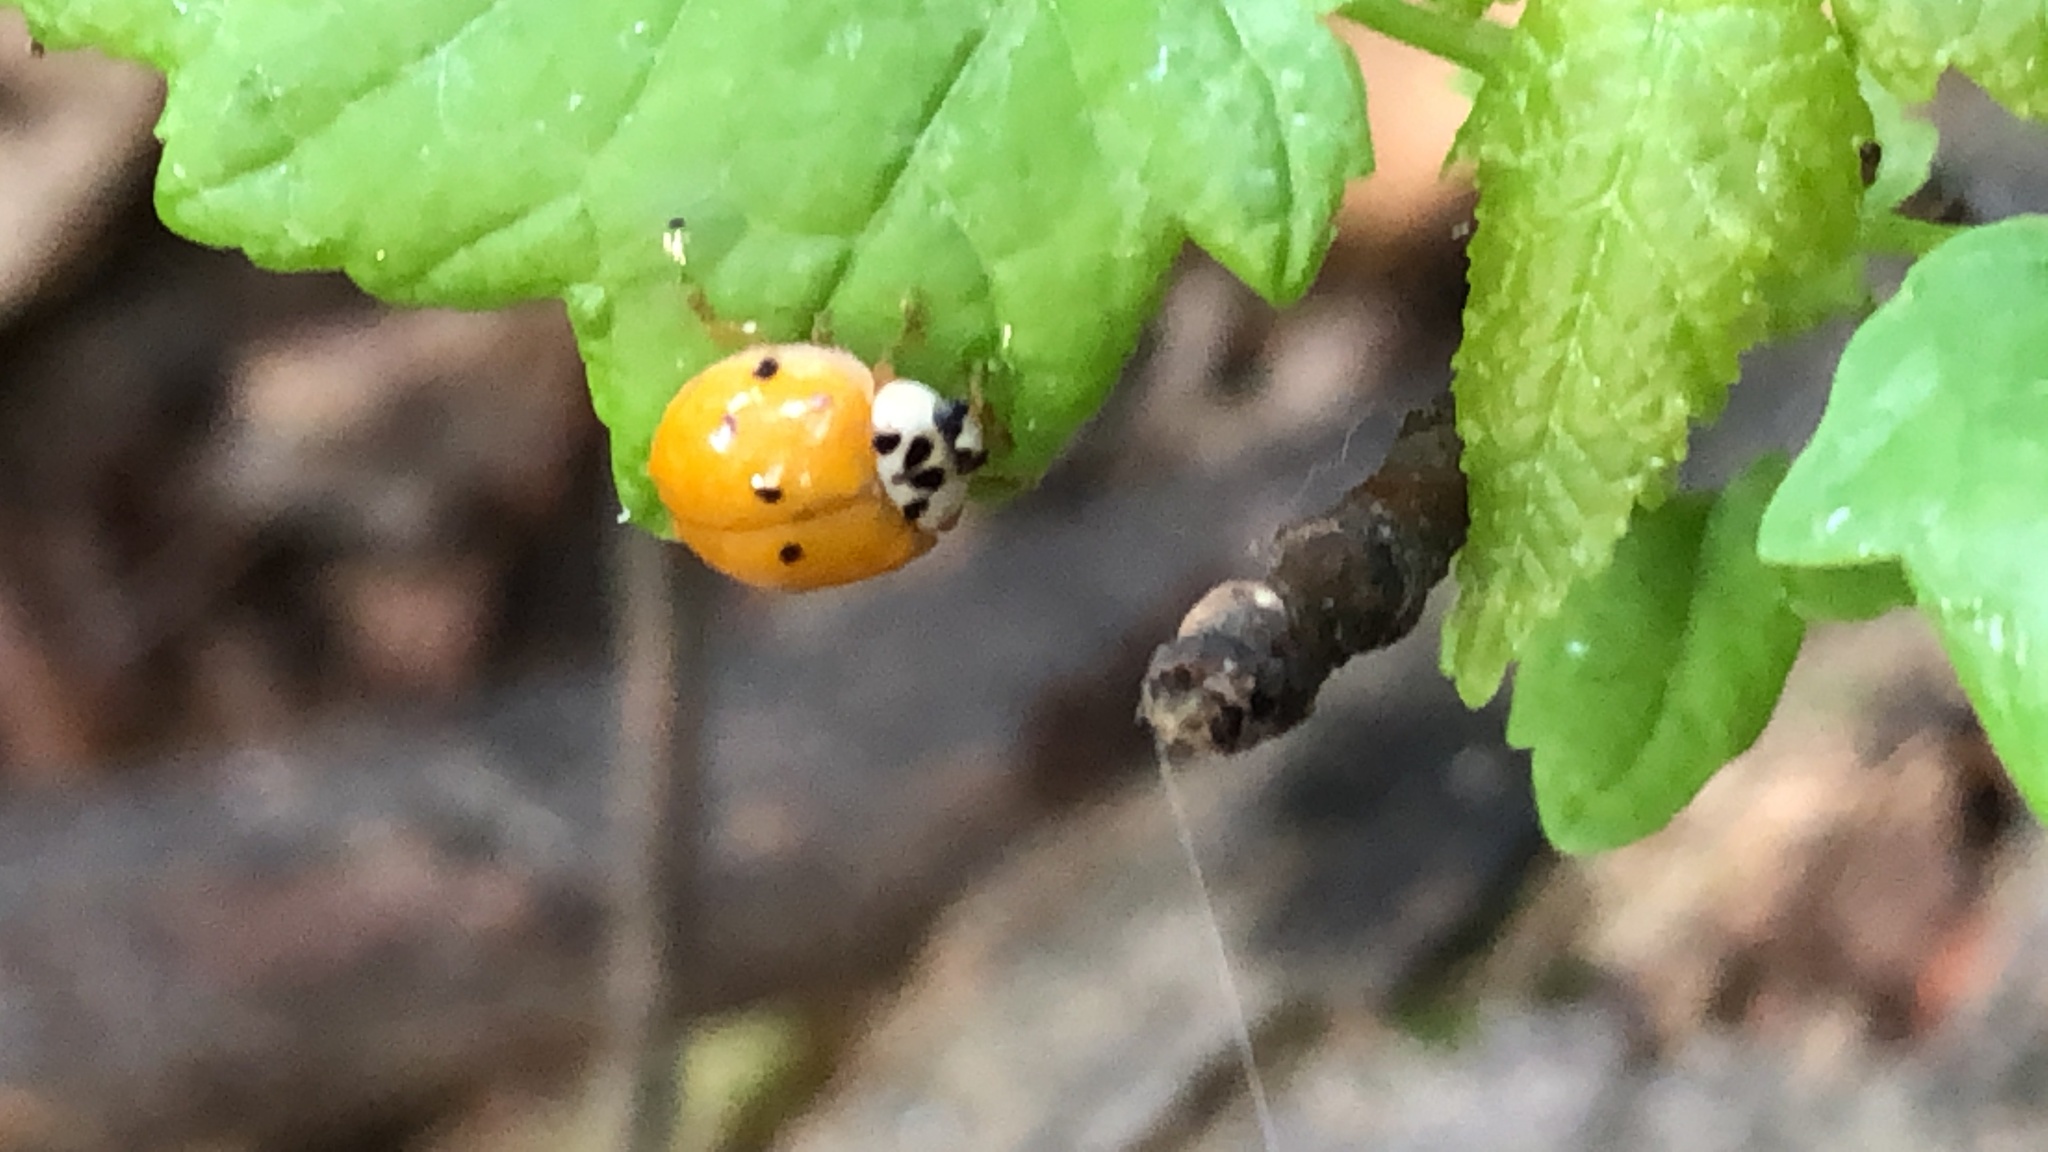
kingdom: Animalia
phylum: Arthropoda
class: Insecta
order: Coleoptera
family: Coccinellidae
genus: Harmonia
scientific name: Harmonia axyridis
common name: Harlequin ladybird
